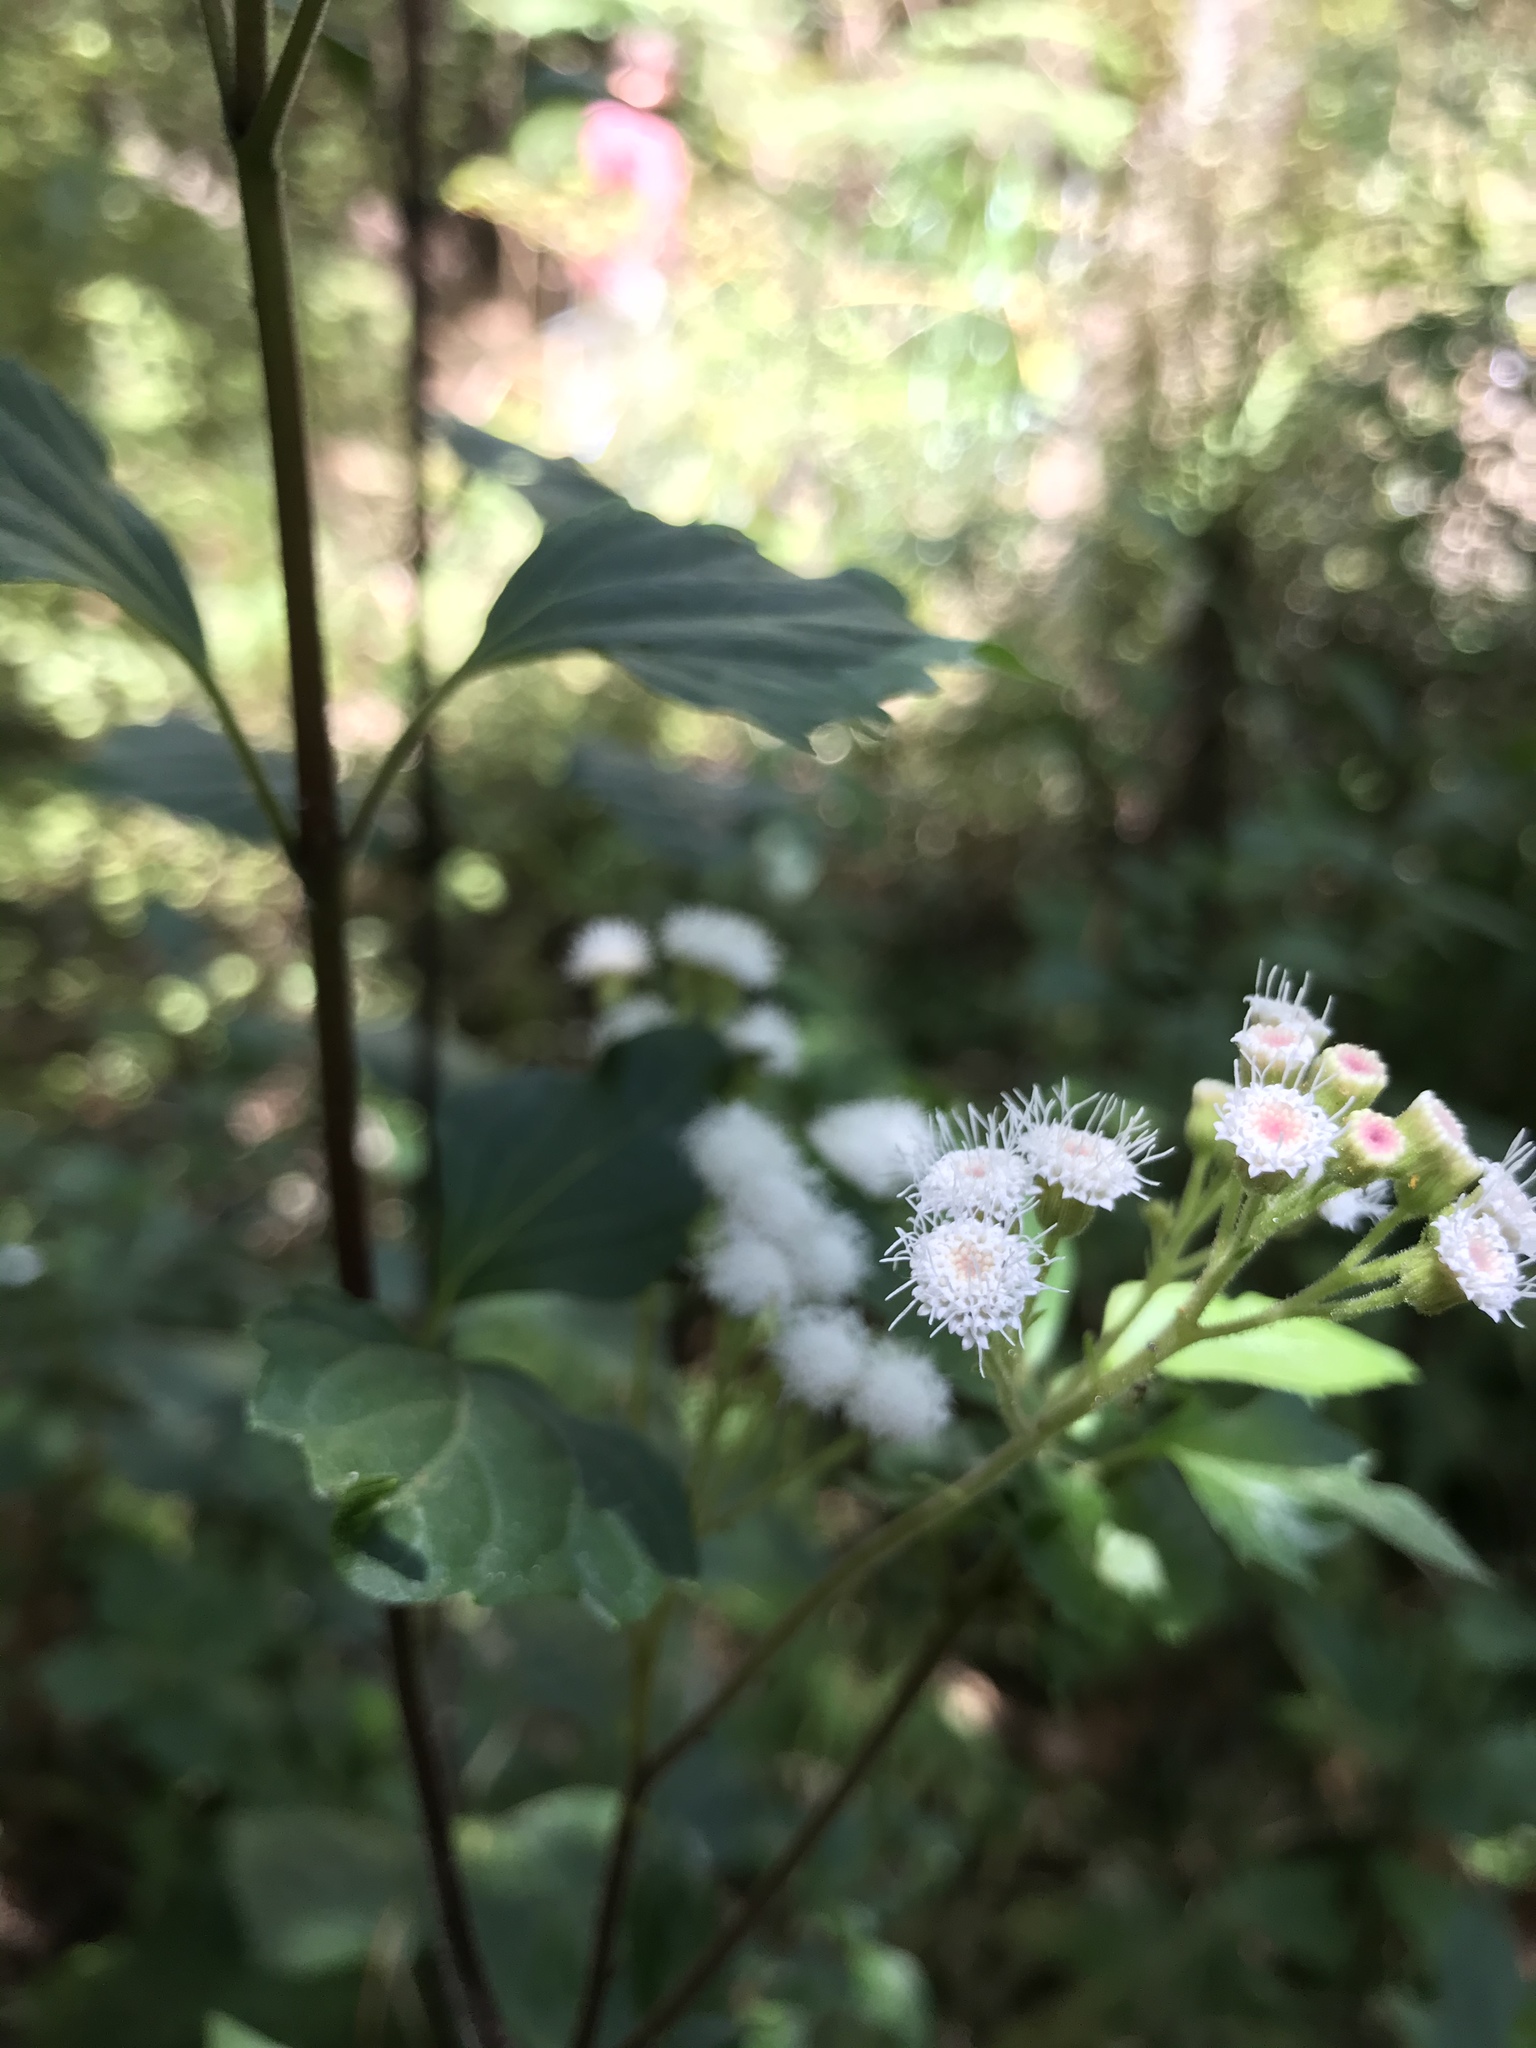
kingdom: Plantae
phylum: Tracheophyta
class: Magnoliopsida
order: Asterales
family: Asteraceae
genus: Ageratina
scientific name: Ageratina adenophora
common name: Sticky snakeroot
